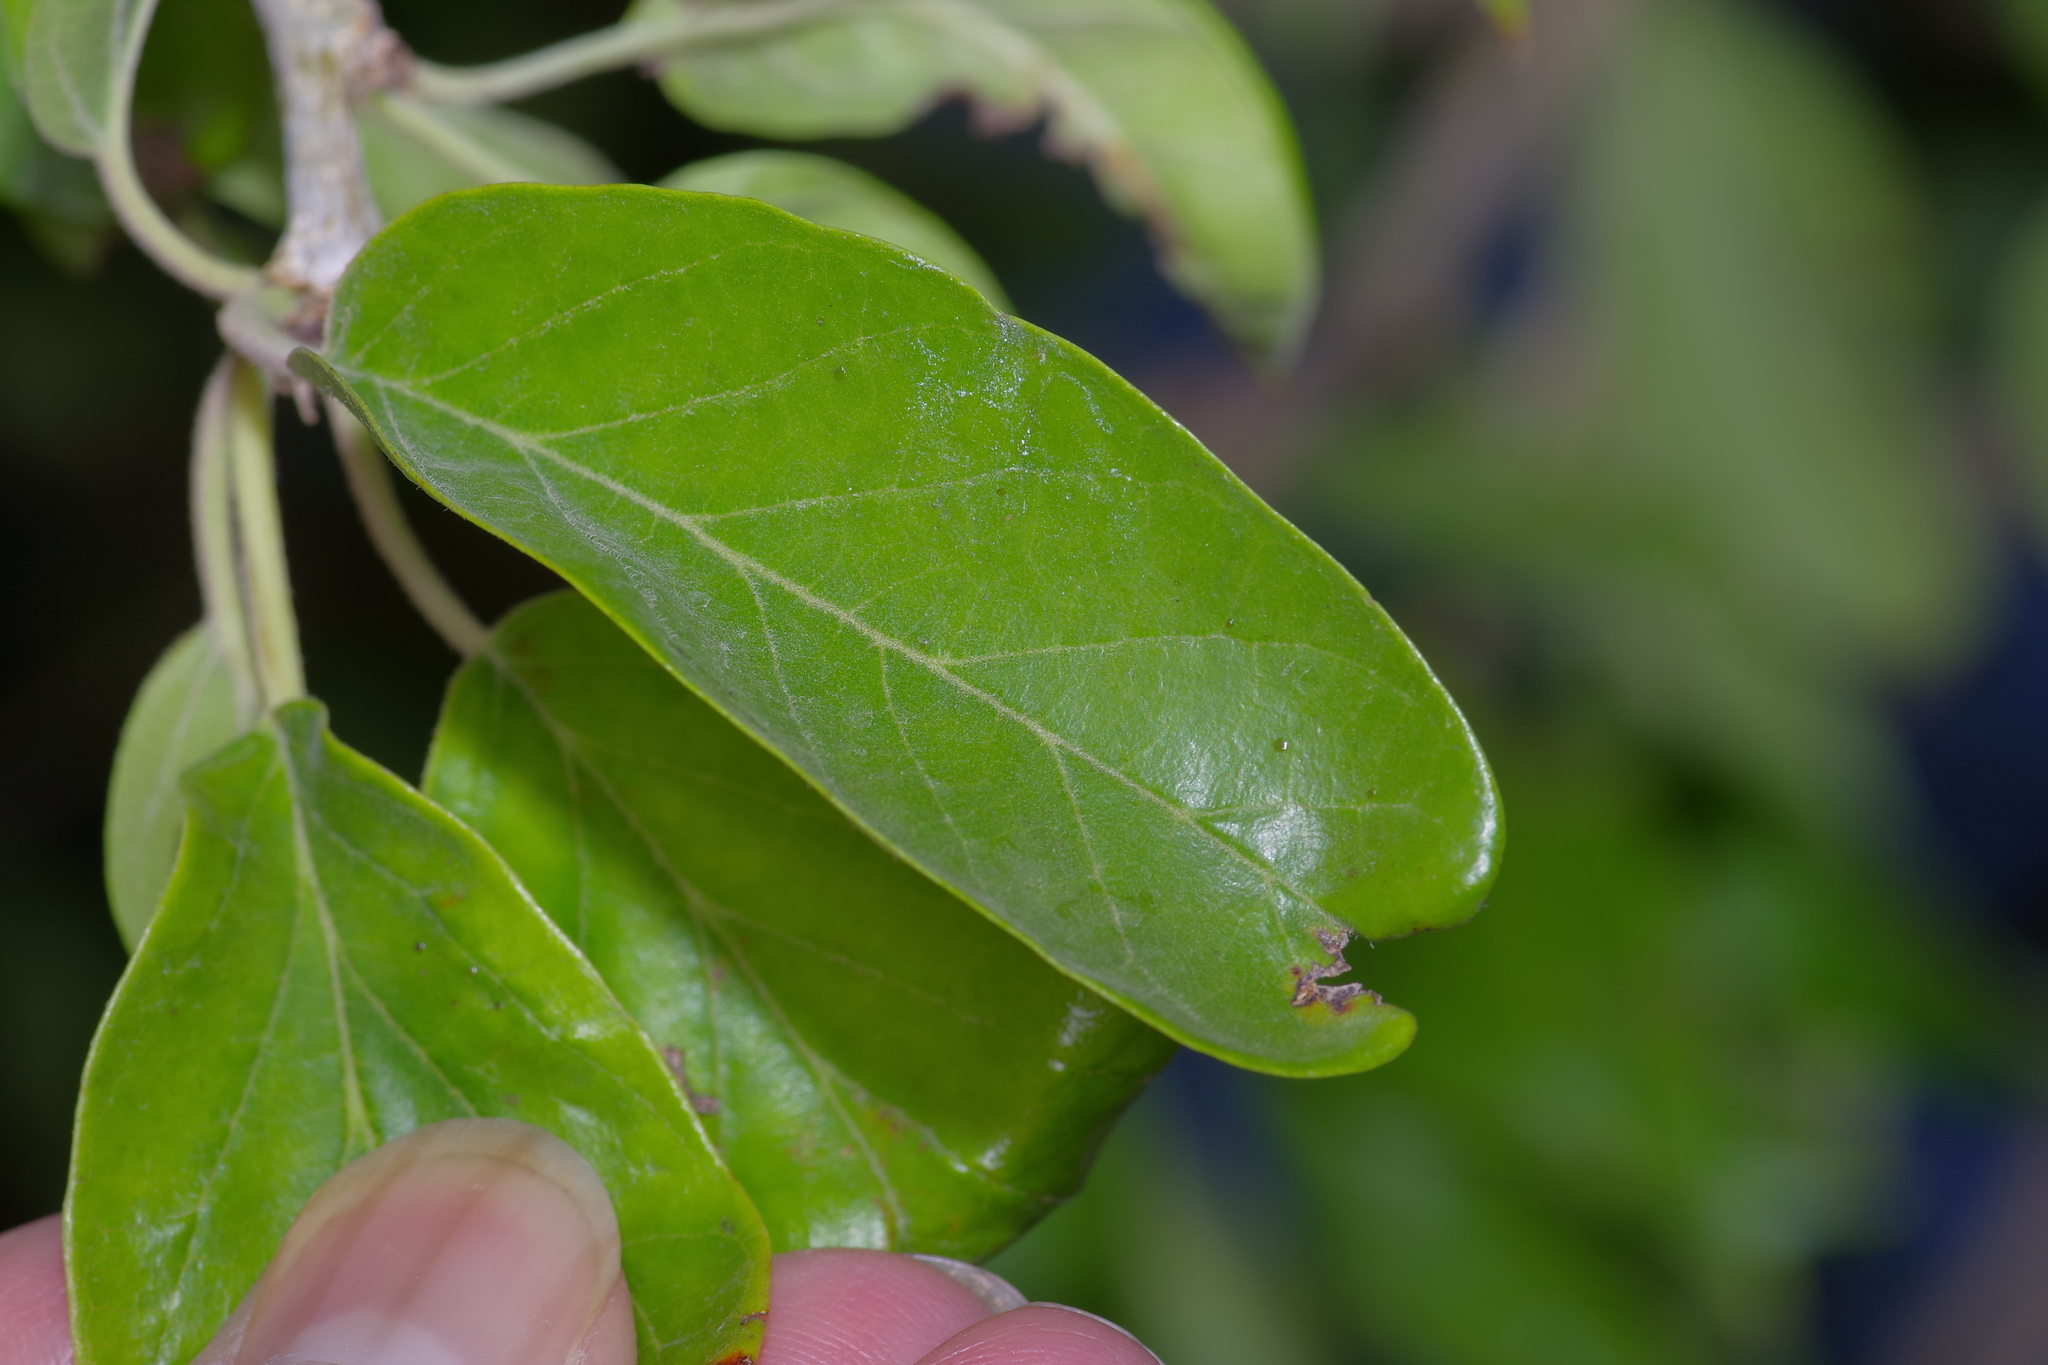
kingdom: Plantae
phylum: Tracheophyta
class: Magnoliopsida
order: Rosales
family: Moraceae
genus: Maclura
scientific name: Maclura pomifera
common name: Osage-orange
